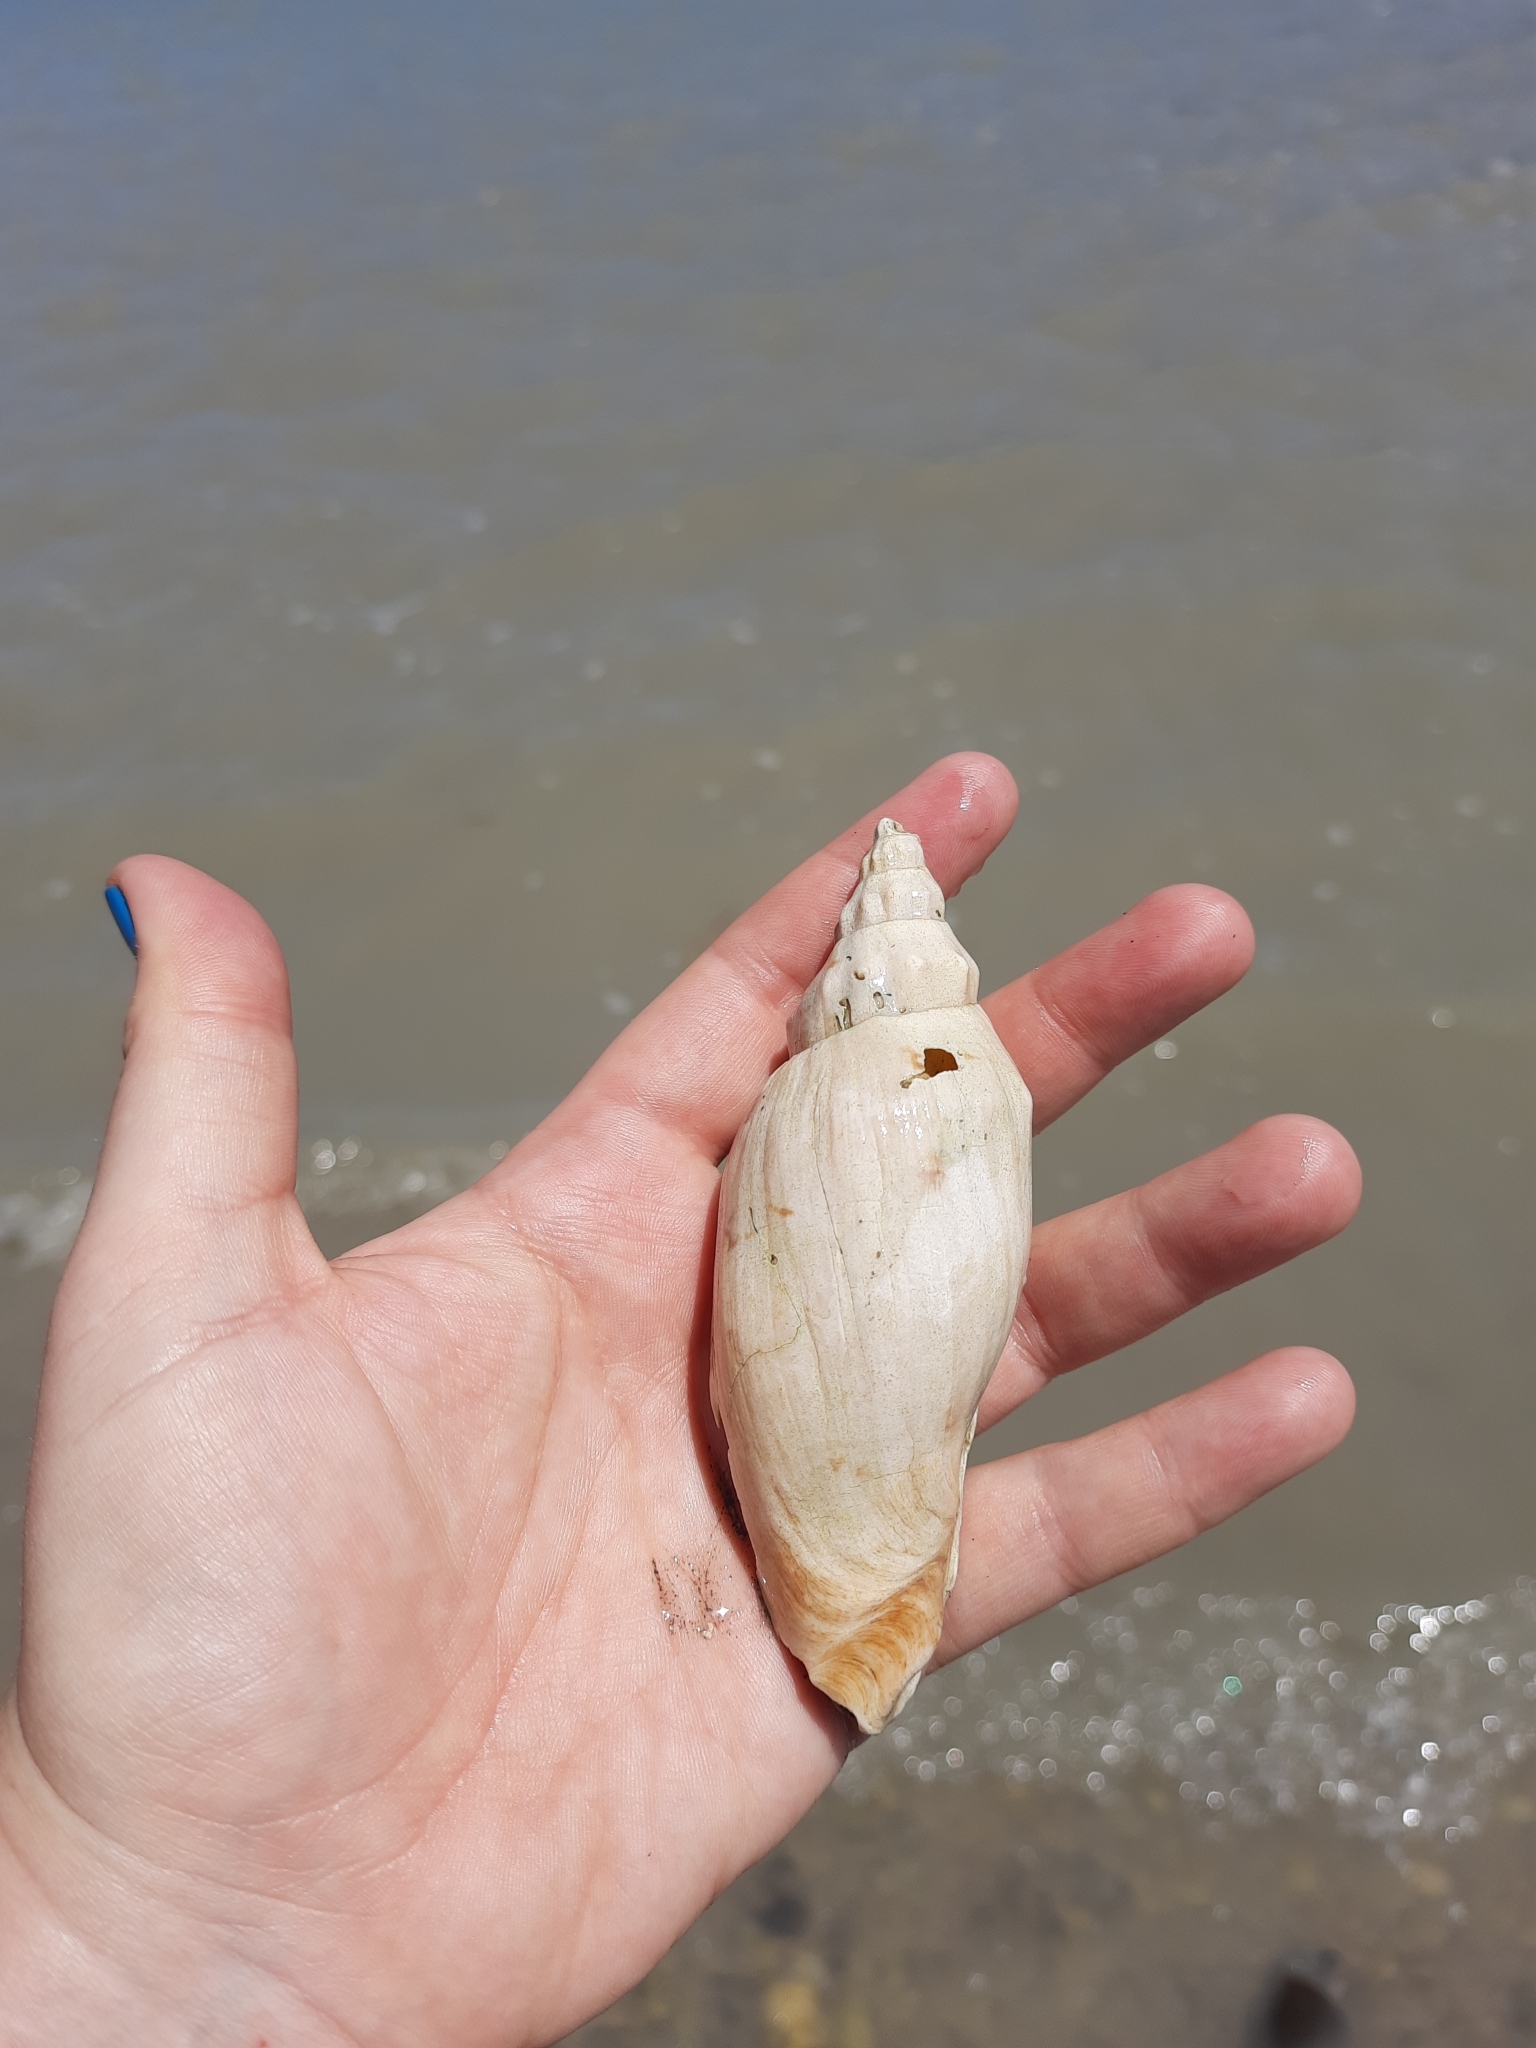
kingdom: Animalia
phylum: Mollusca
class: Gastropoda
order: Neogastropoda
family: Volutidae
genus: Alcithoe
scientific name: Alcithoe arabica
